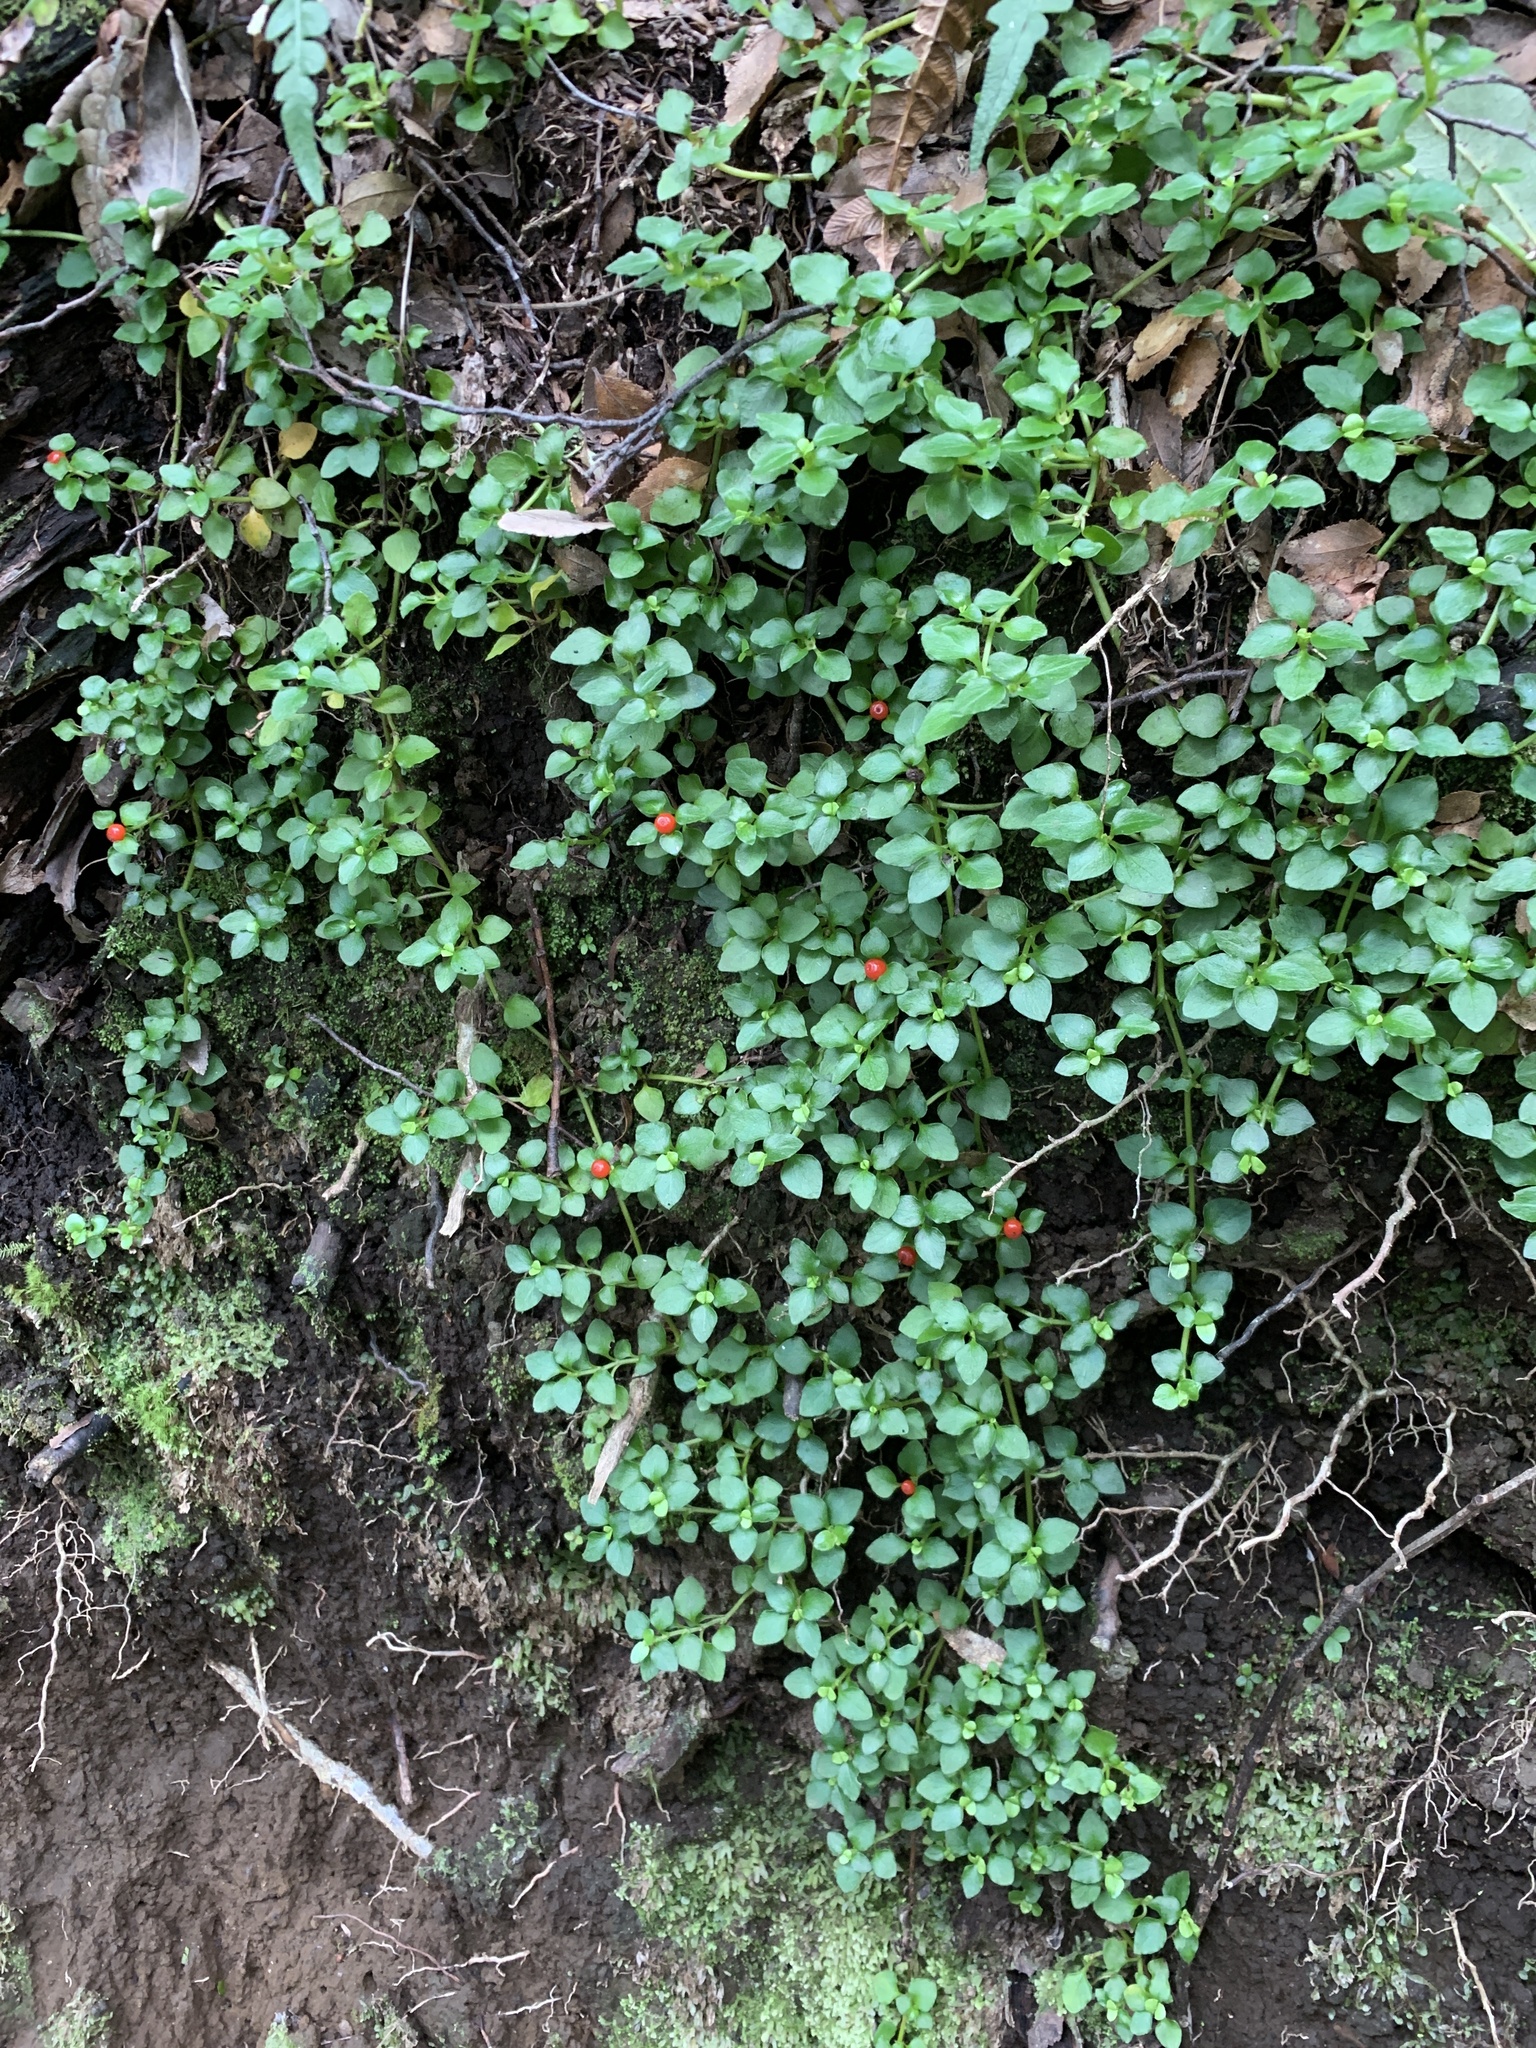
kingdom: Plantae
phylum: Tracheophyta
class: Magnoliopsida
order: Gentianales
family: Rubiaceae
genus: Nertera
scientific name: Nertera granadensis
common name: Beadplant
